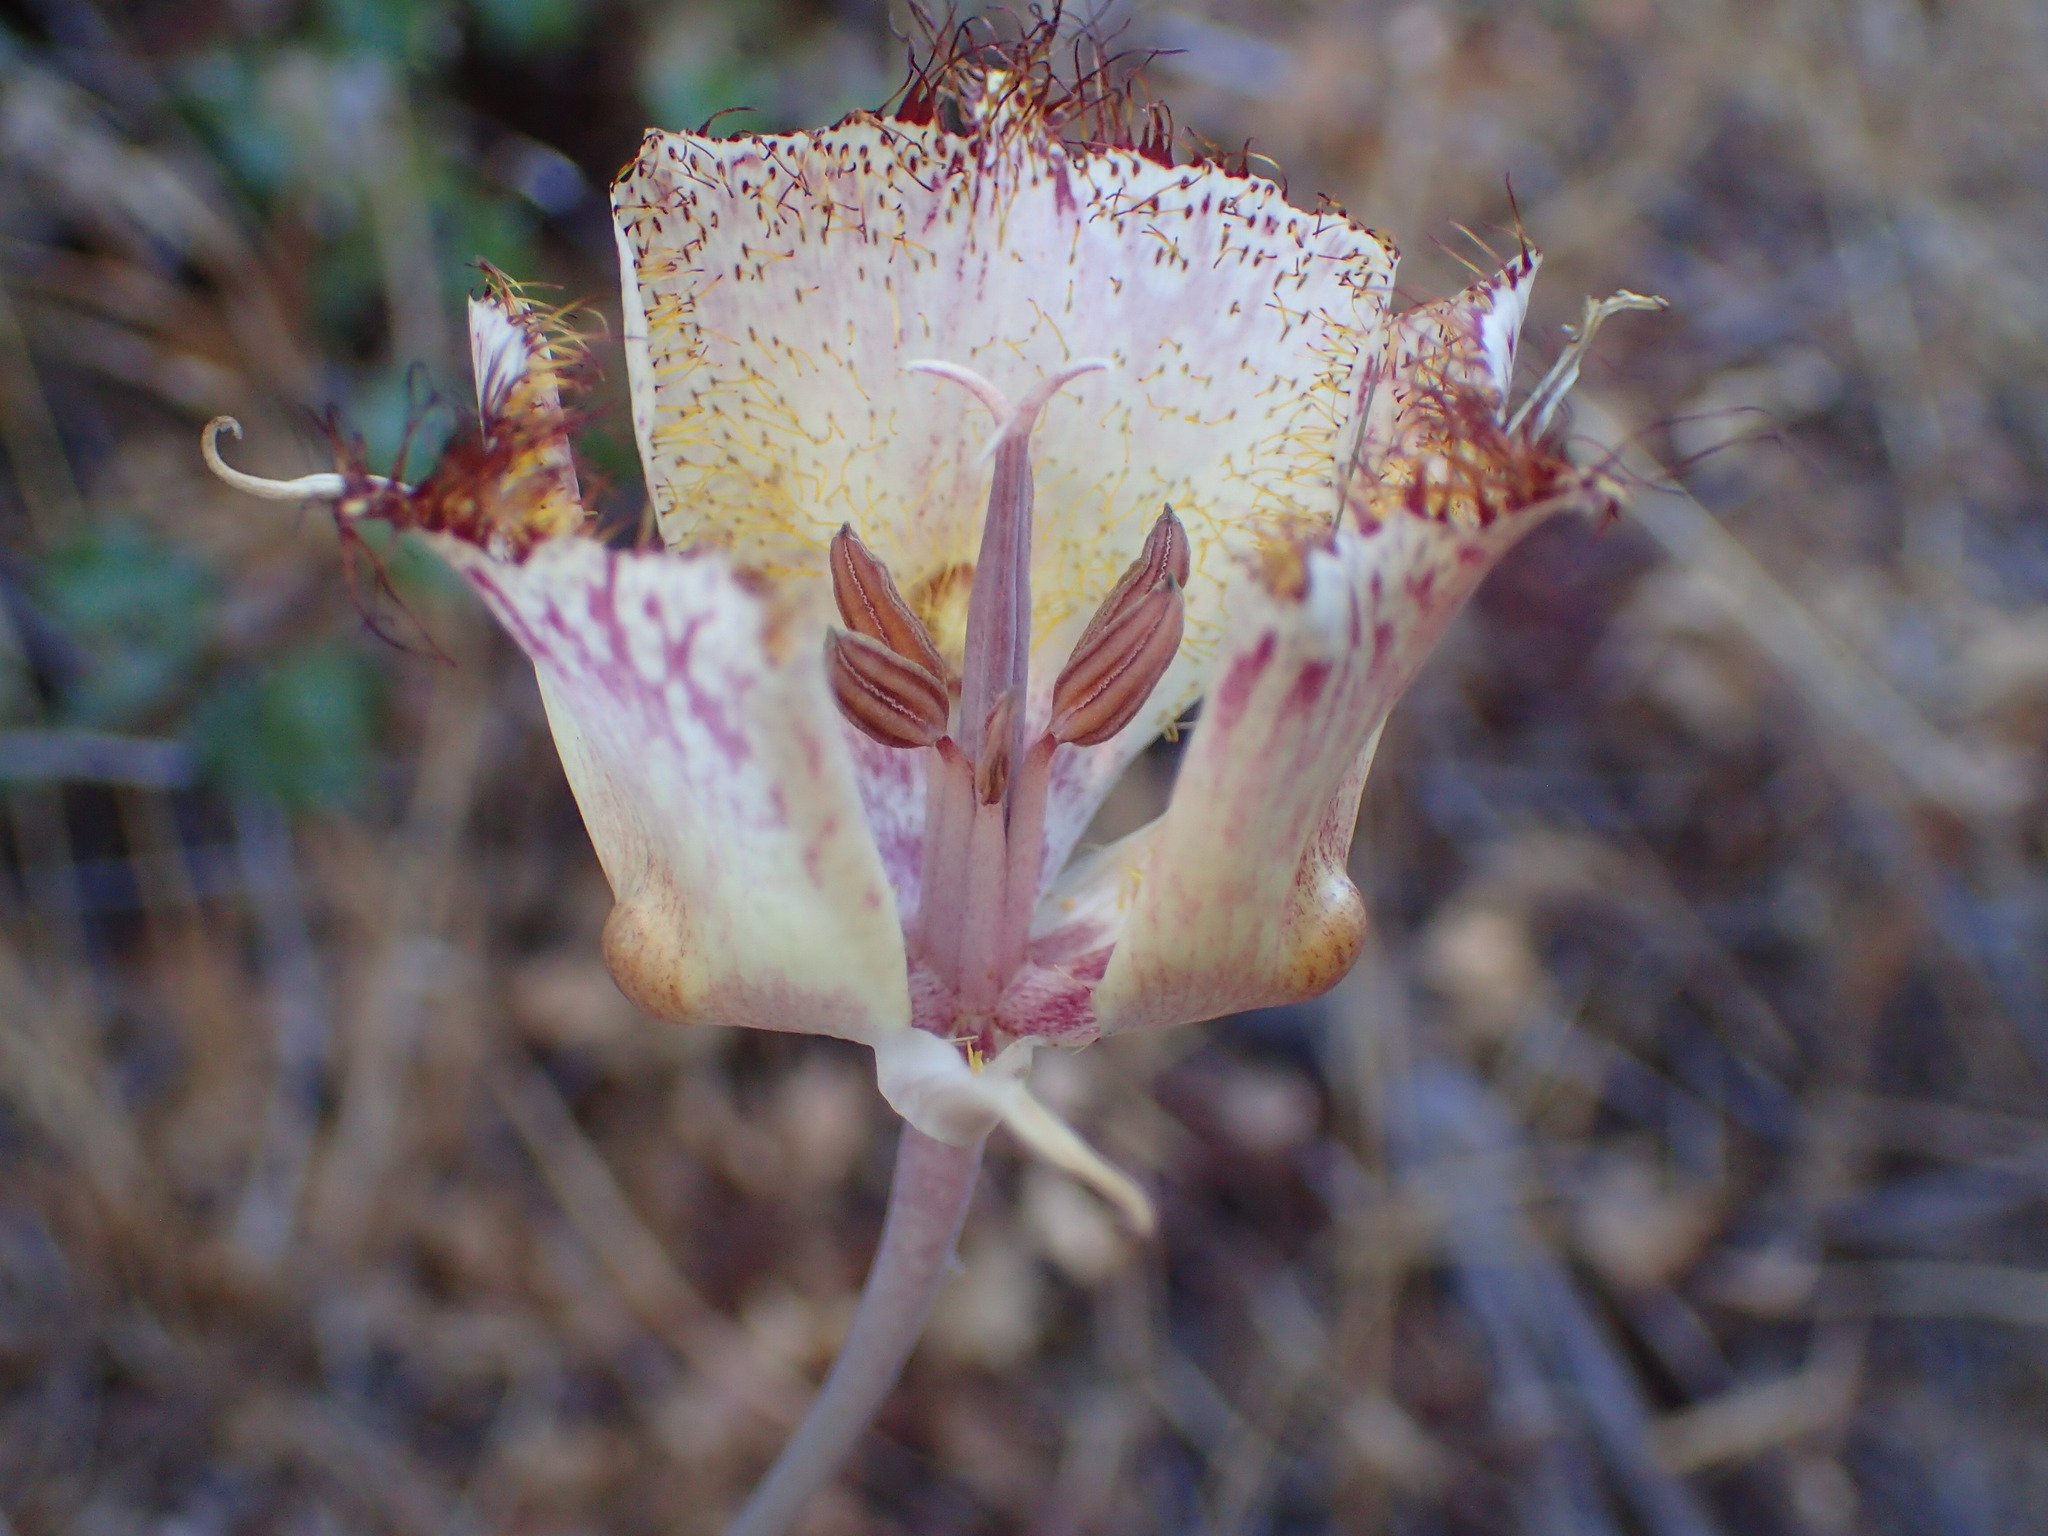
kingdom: Plantae
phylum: Tracheophyta
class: Liliopsida
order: Liliales
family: Liliaceae
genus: Calochortus
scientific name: Calochortus fimbriatus
